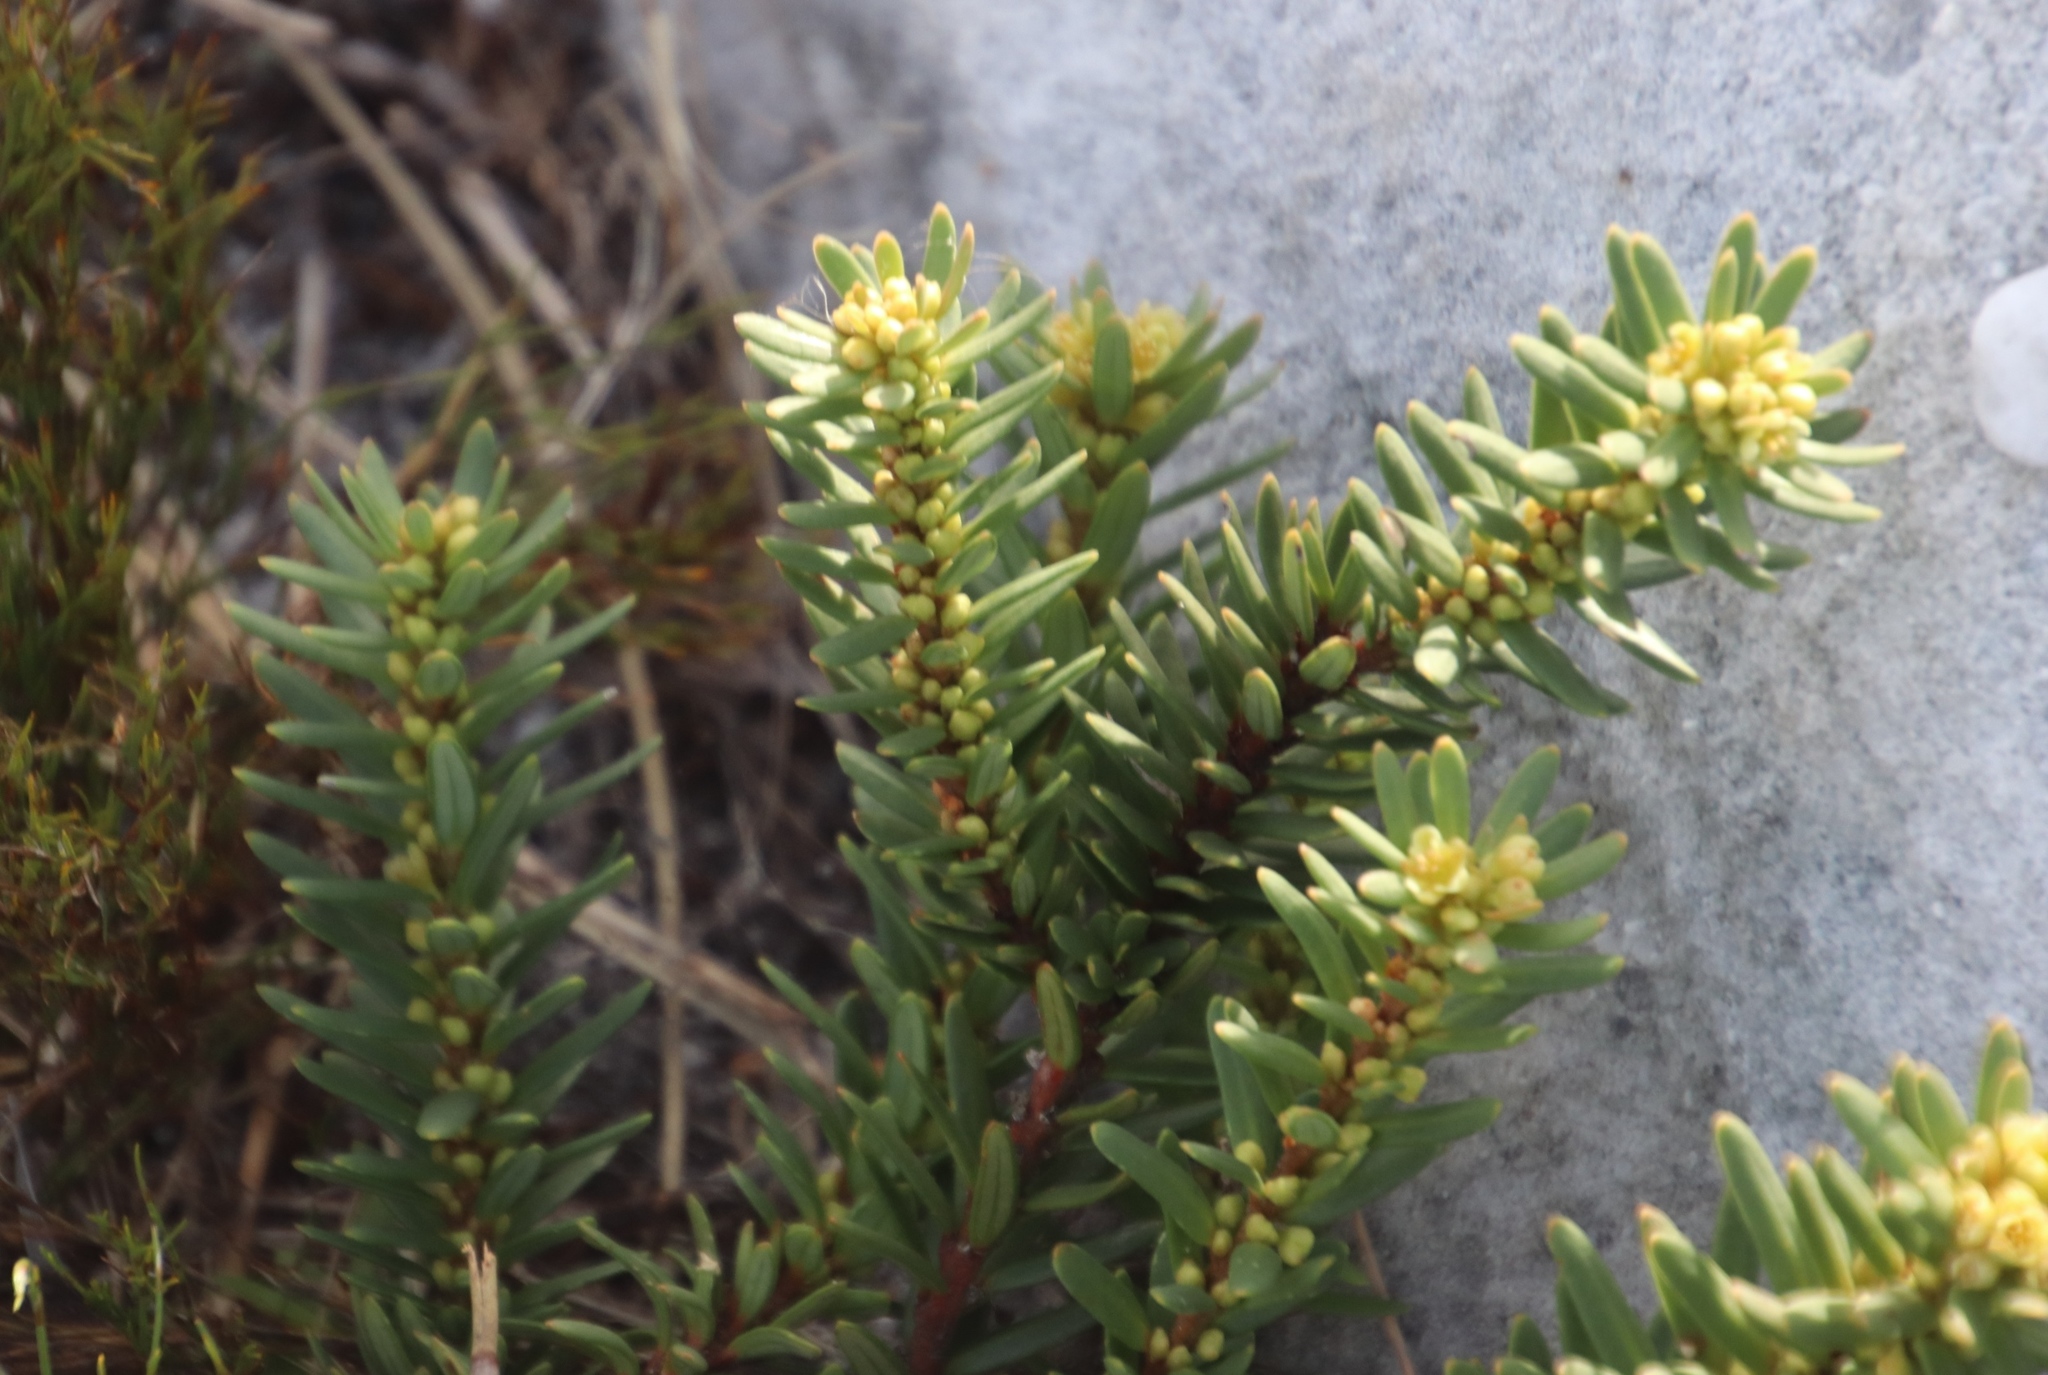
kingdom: Plantae
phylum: Tracheophyta
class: Magnoliopsida
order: Malpighiales
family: Peraceae
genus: Clutia
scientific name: Clutia polygonoides
